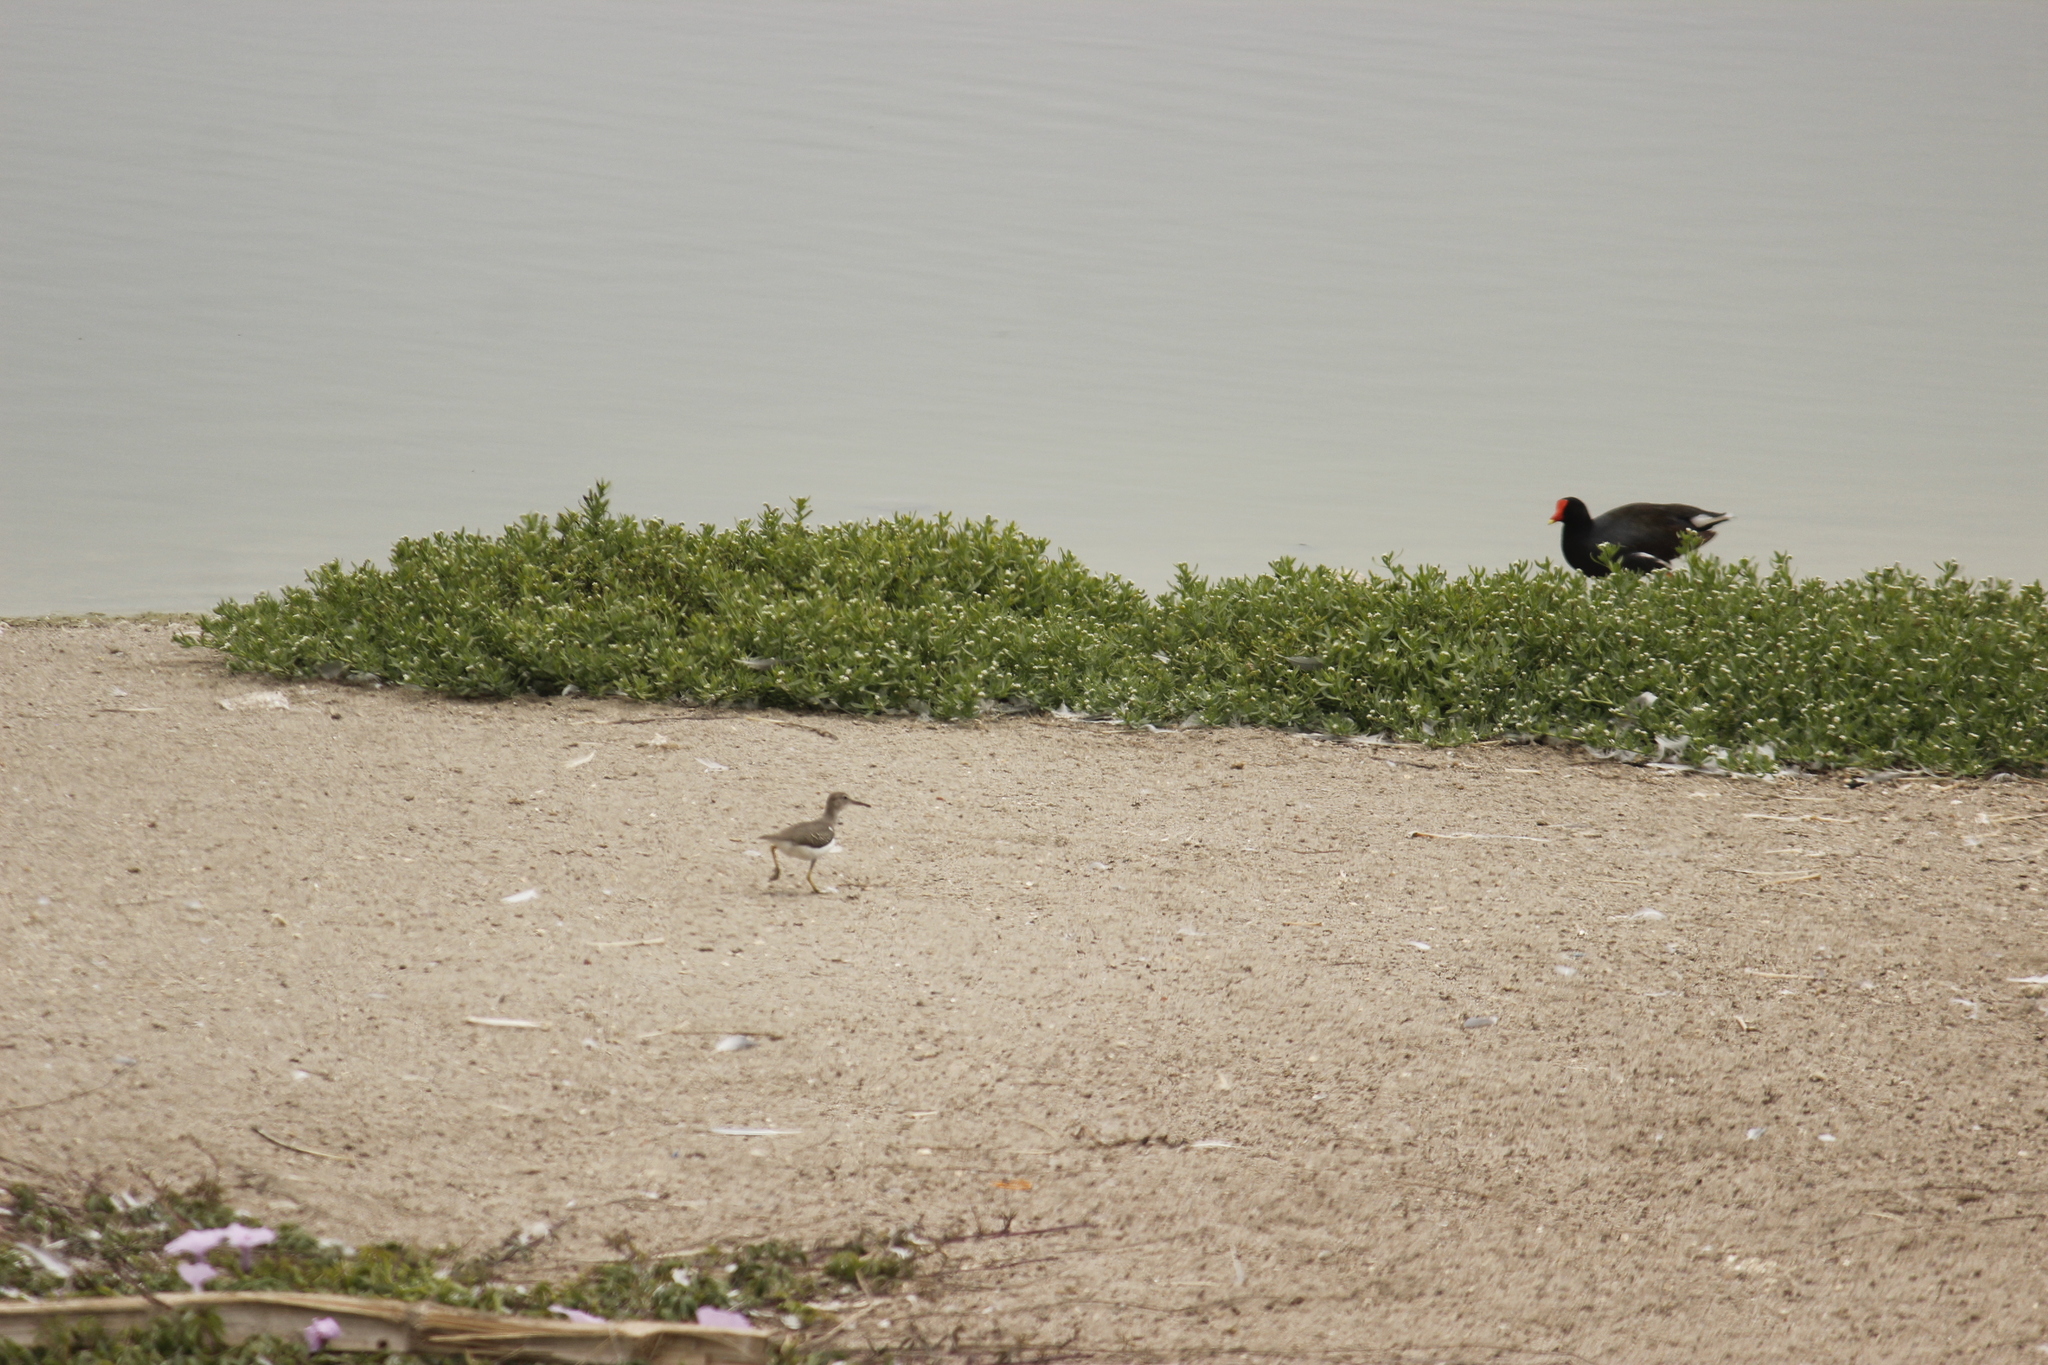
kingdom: Animalia
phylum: Chordata
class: Aves
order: Charadriiformes
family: Scolopacidae
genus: Actitis
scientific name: Actitis macularius
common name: Spotted sandpiper
